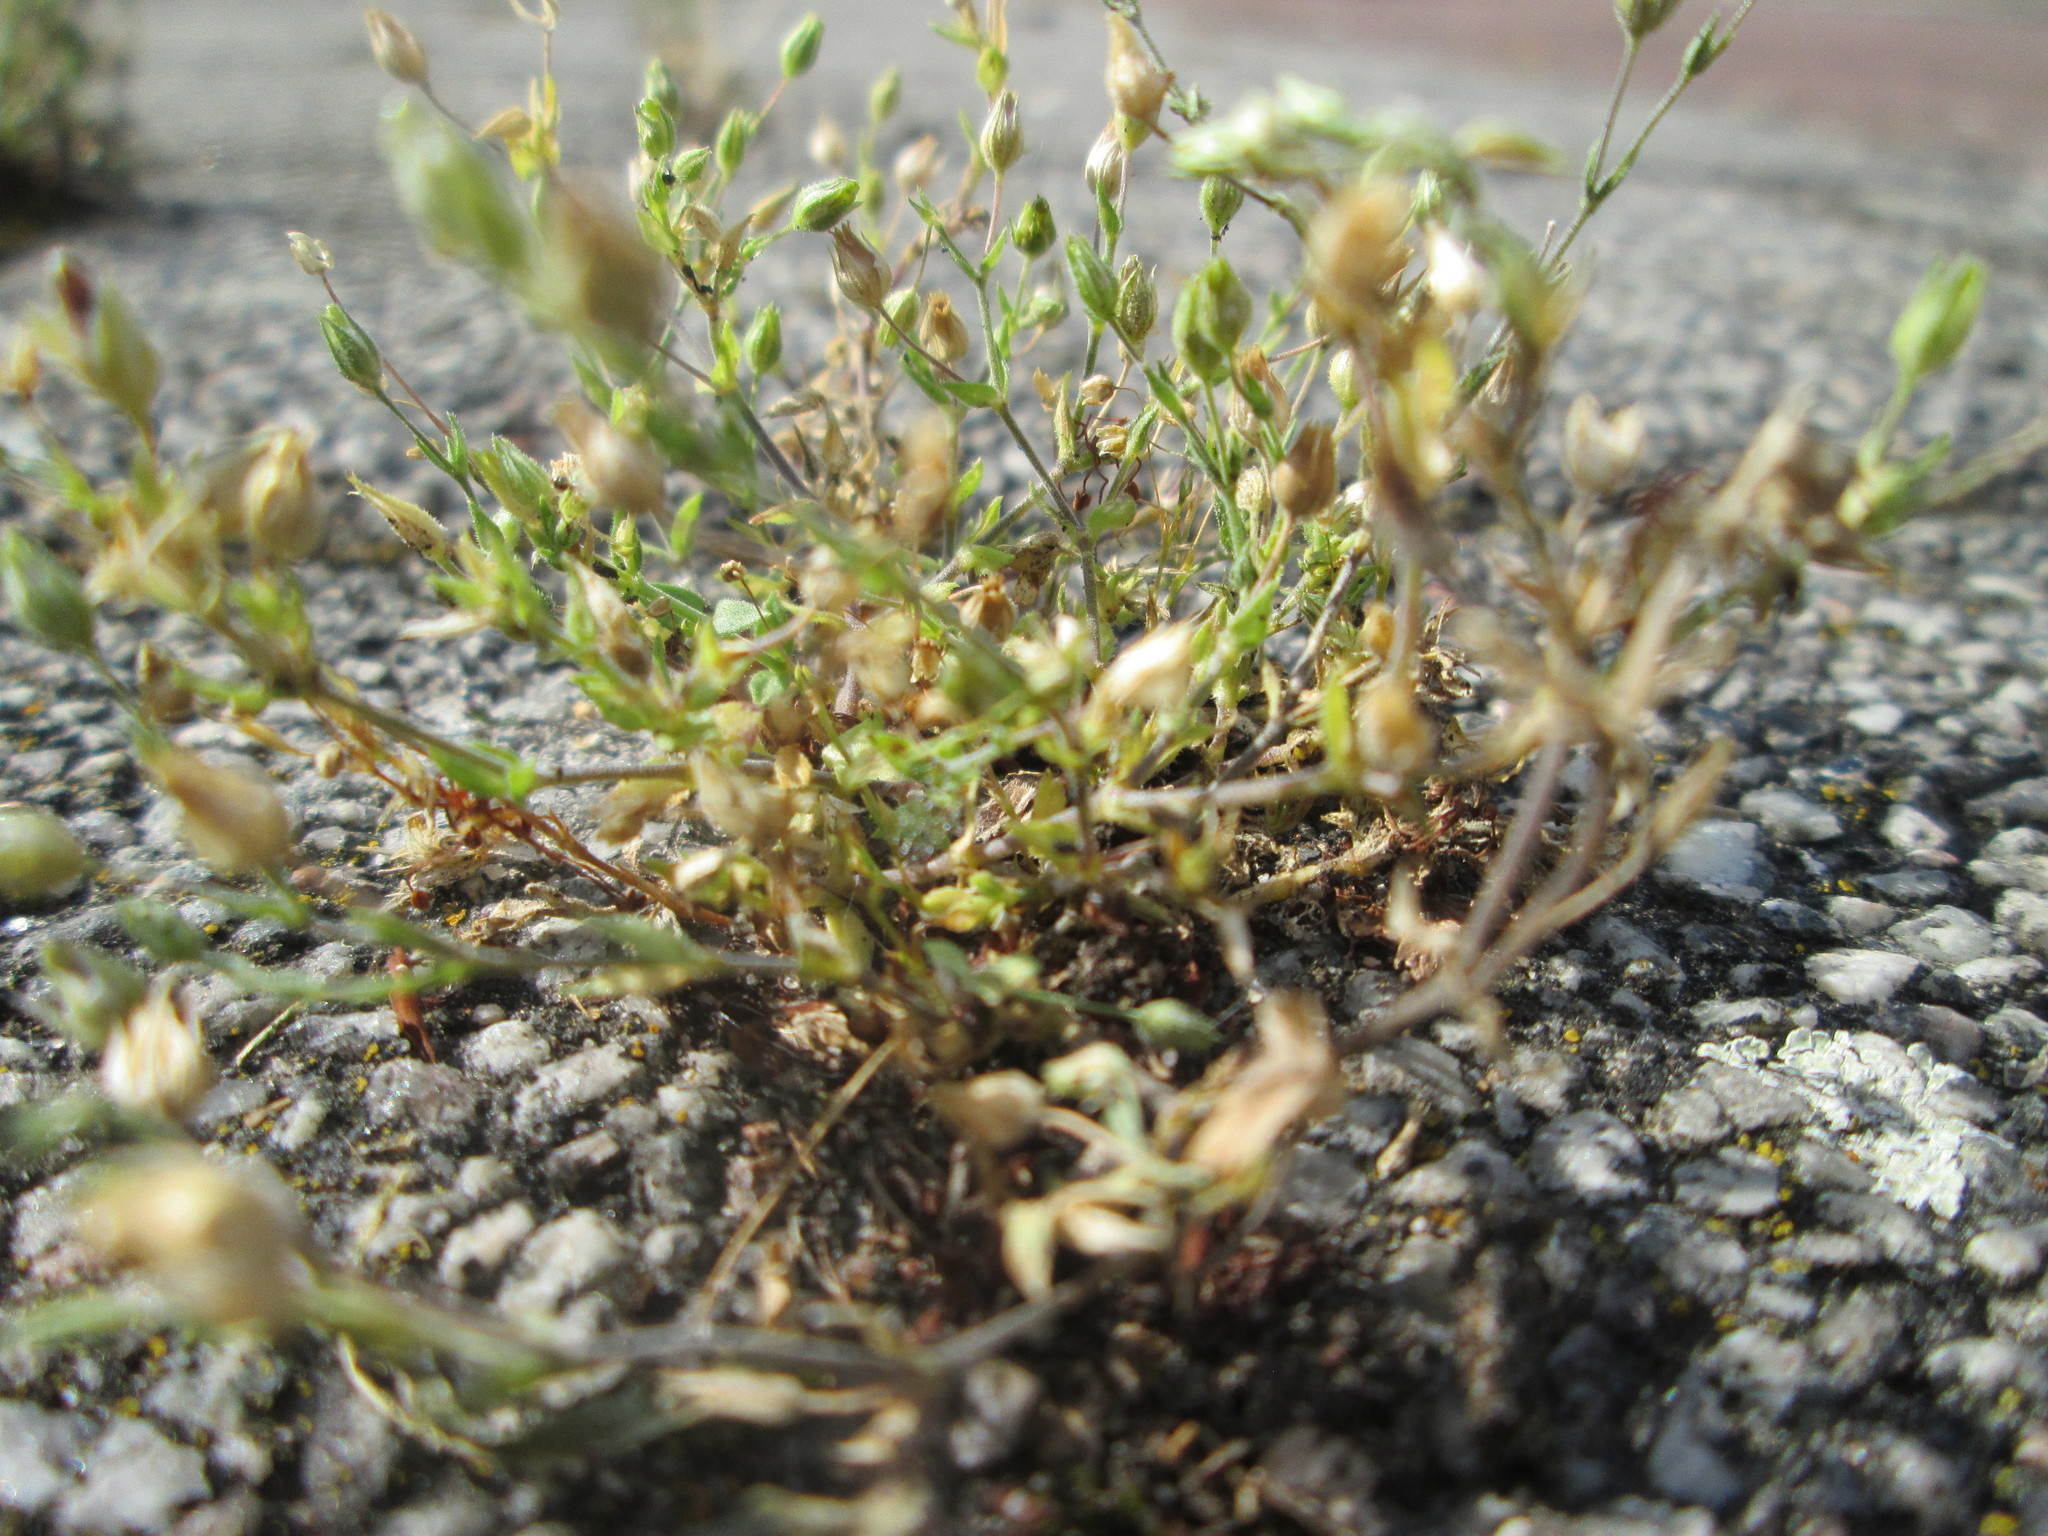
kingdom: Plantae
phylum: Tracheophyta
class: Magnoliopsida
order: Caryophyllales
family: Caryophyllaceae
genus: Arenaria
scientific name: Arenaria serpyllifolia
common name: Thyme-leaved sandwort
